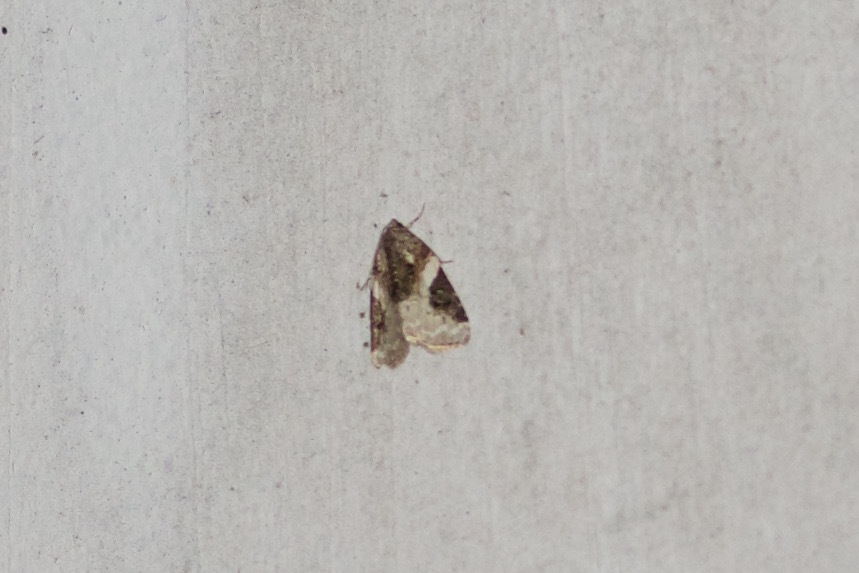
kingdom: Animalia
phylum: Arthropoda
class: Insecta
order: Lepidoptera
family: Noctuidae
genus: Pseudeustrotia
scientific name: Pseudeustrotia carneola
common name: Pink-barred lithacodia moth
